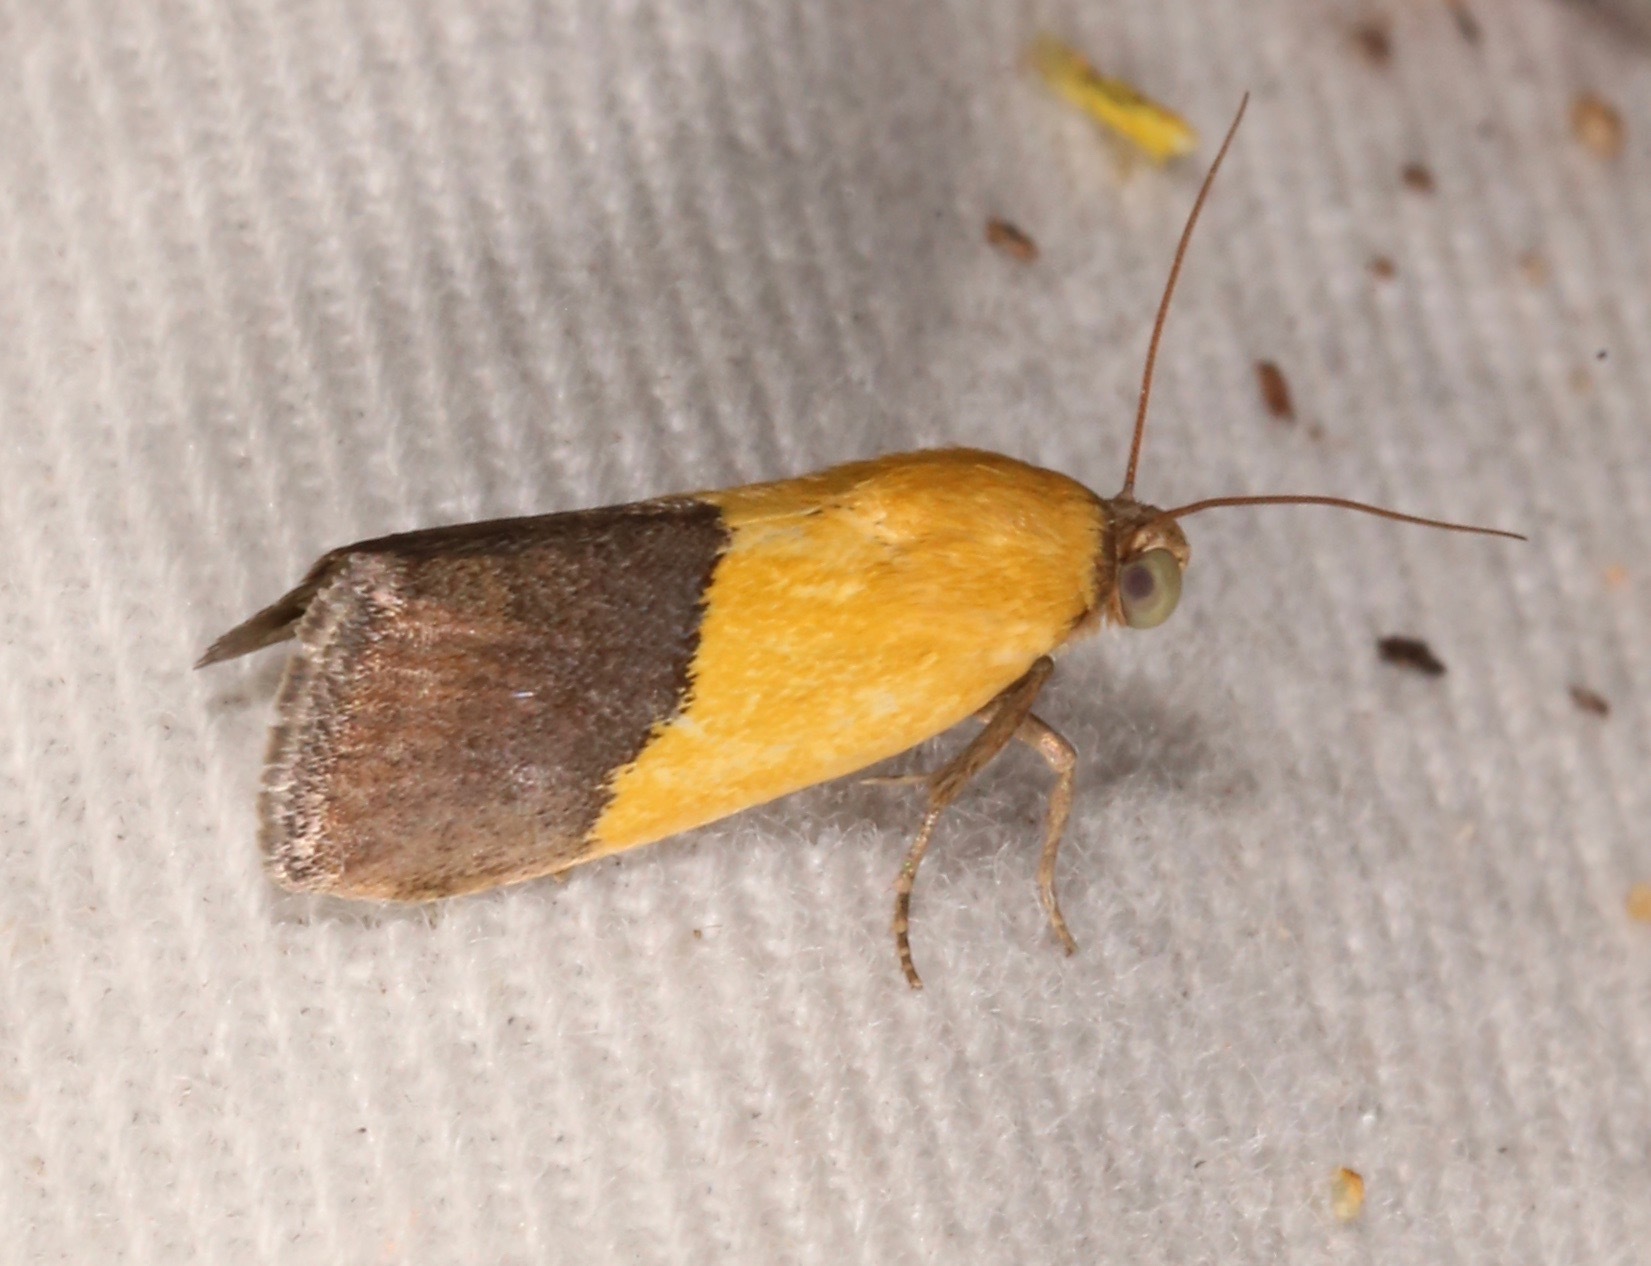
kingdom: Animalia
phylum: Arthropoda
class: Insecta
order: Lepidoptera
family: Noctuidae
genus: Acontia
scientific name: Acontia semiflava
